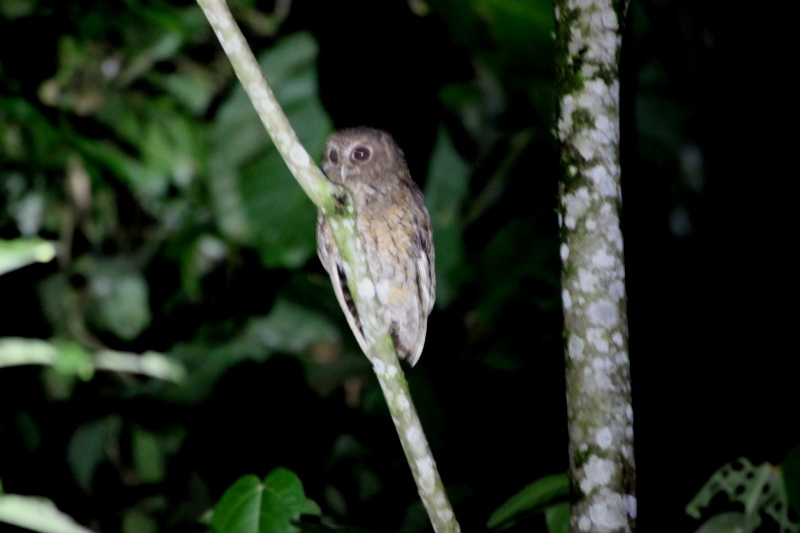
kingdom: Animalia
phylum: Chordata
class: Aves
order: Strigiformes
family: Strigidae
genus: Megascops
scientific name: Megascops ingens
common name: Rufescent screech-owl
